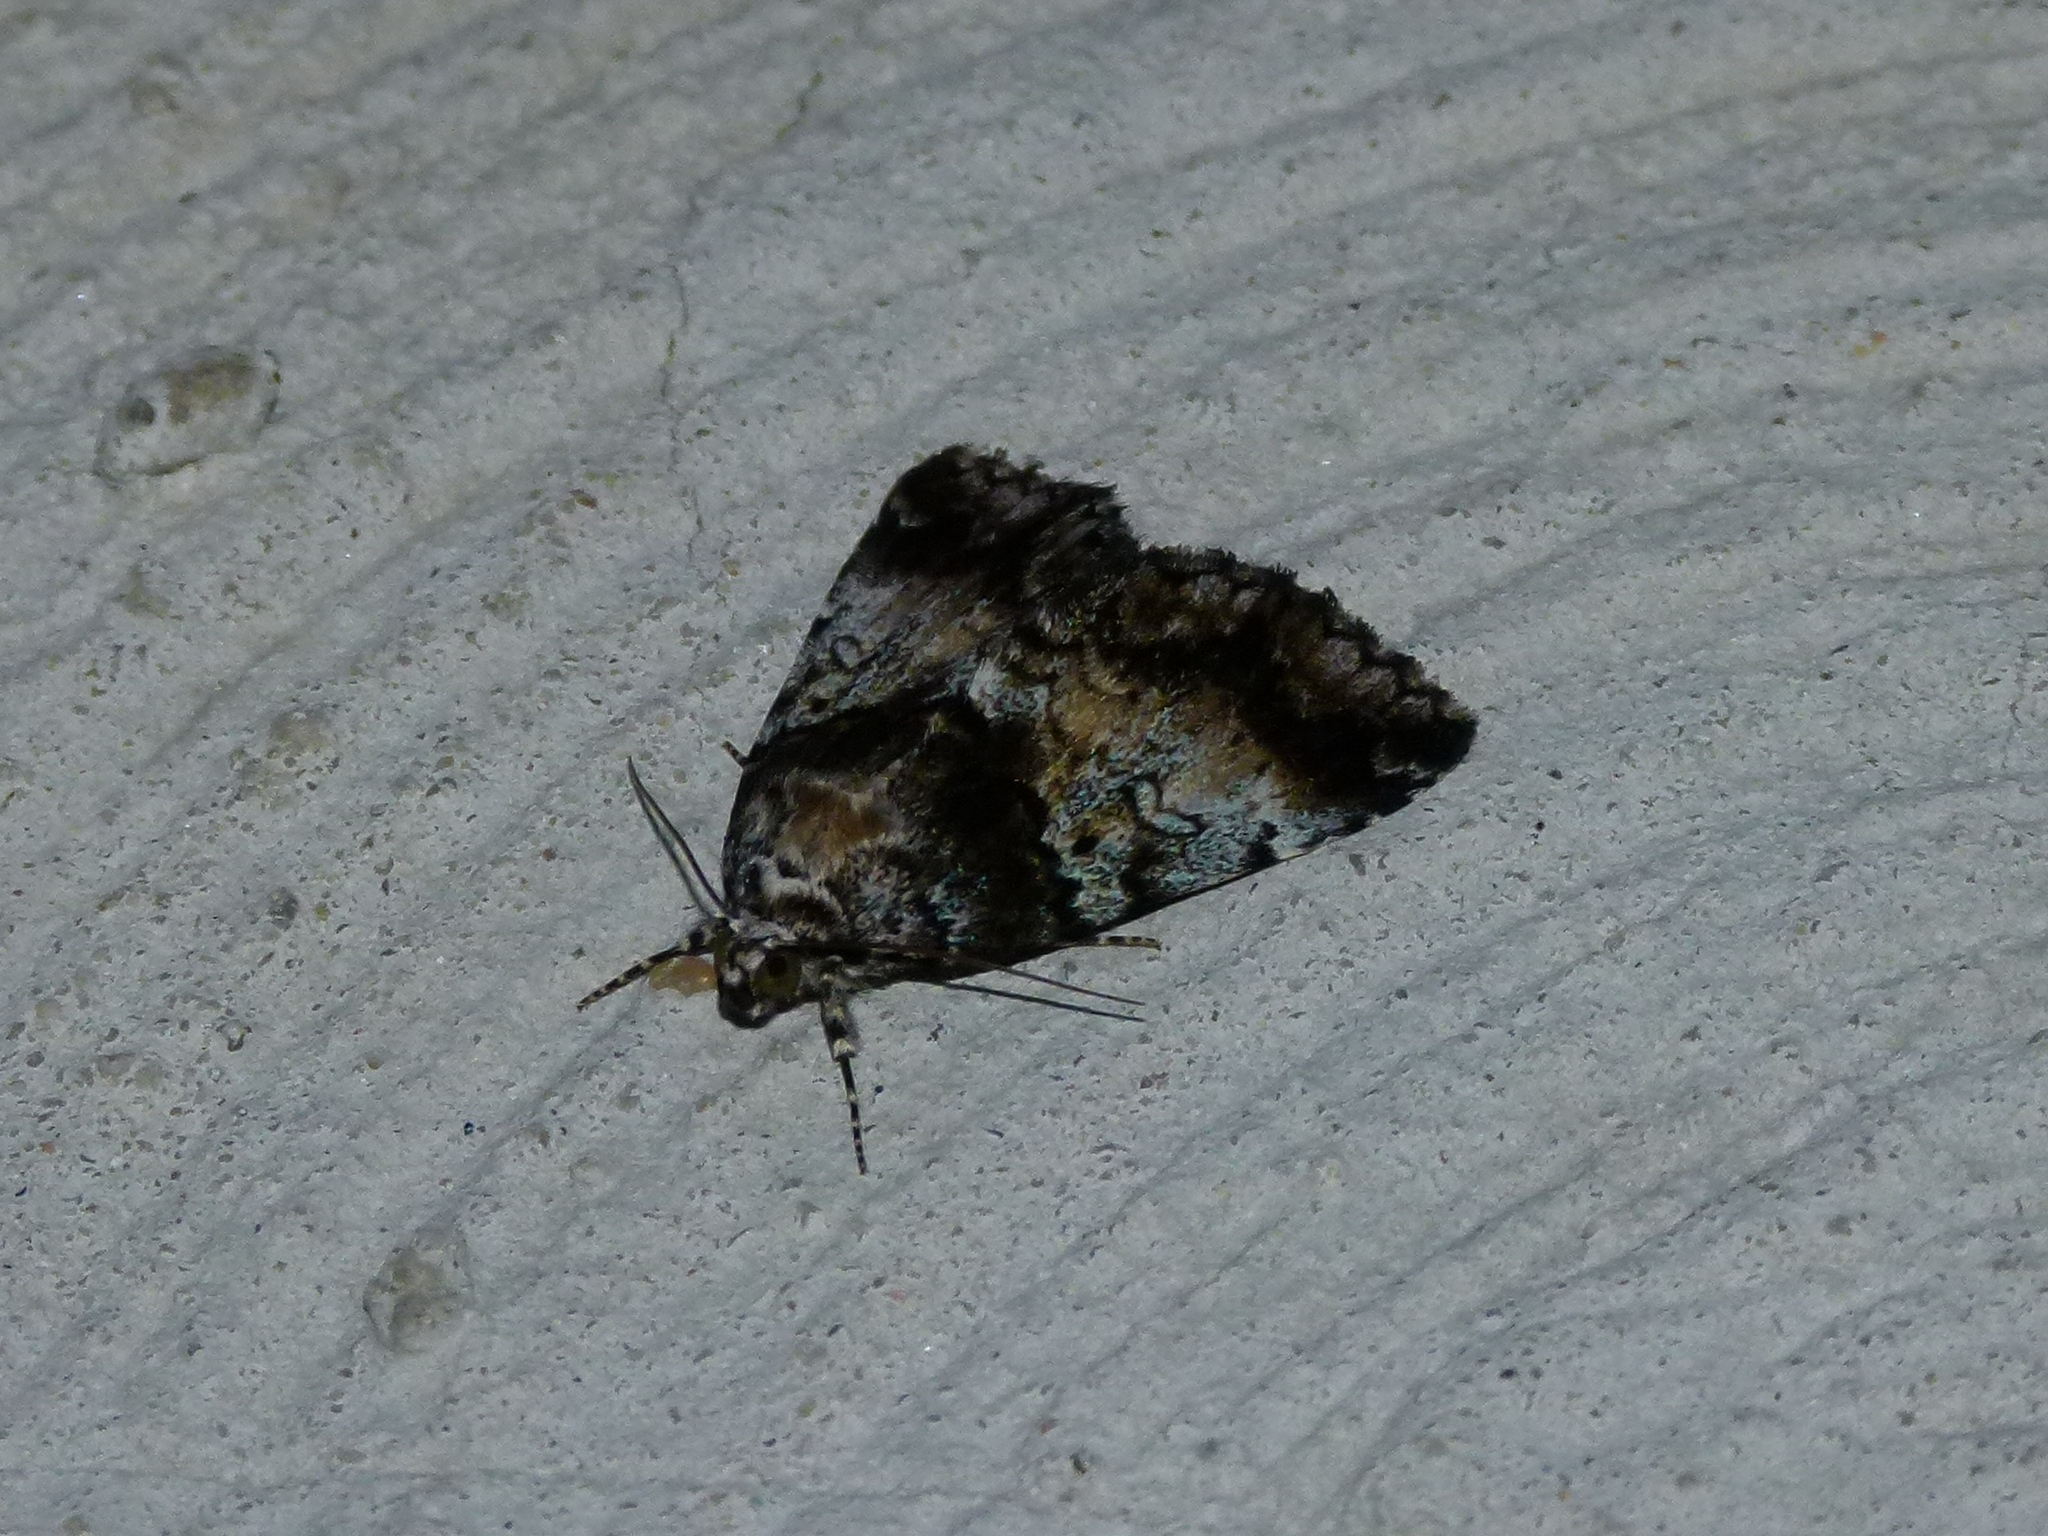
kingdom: Animalia
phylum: Arthropoda
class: Insecta
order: Lepidoptera
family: Erebidae
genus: Allotria
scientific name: Allotria elonympha
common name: False underwing
